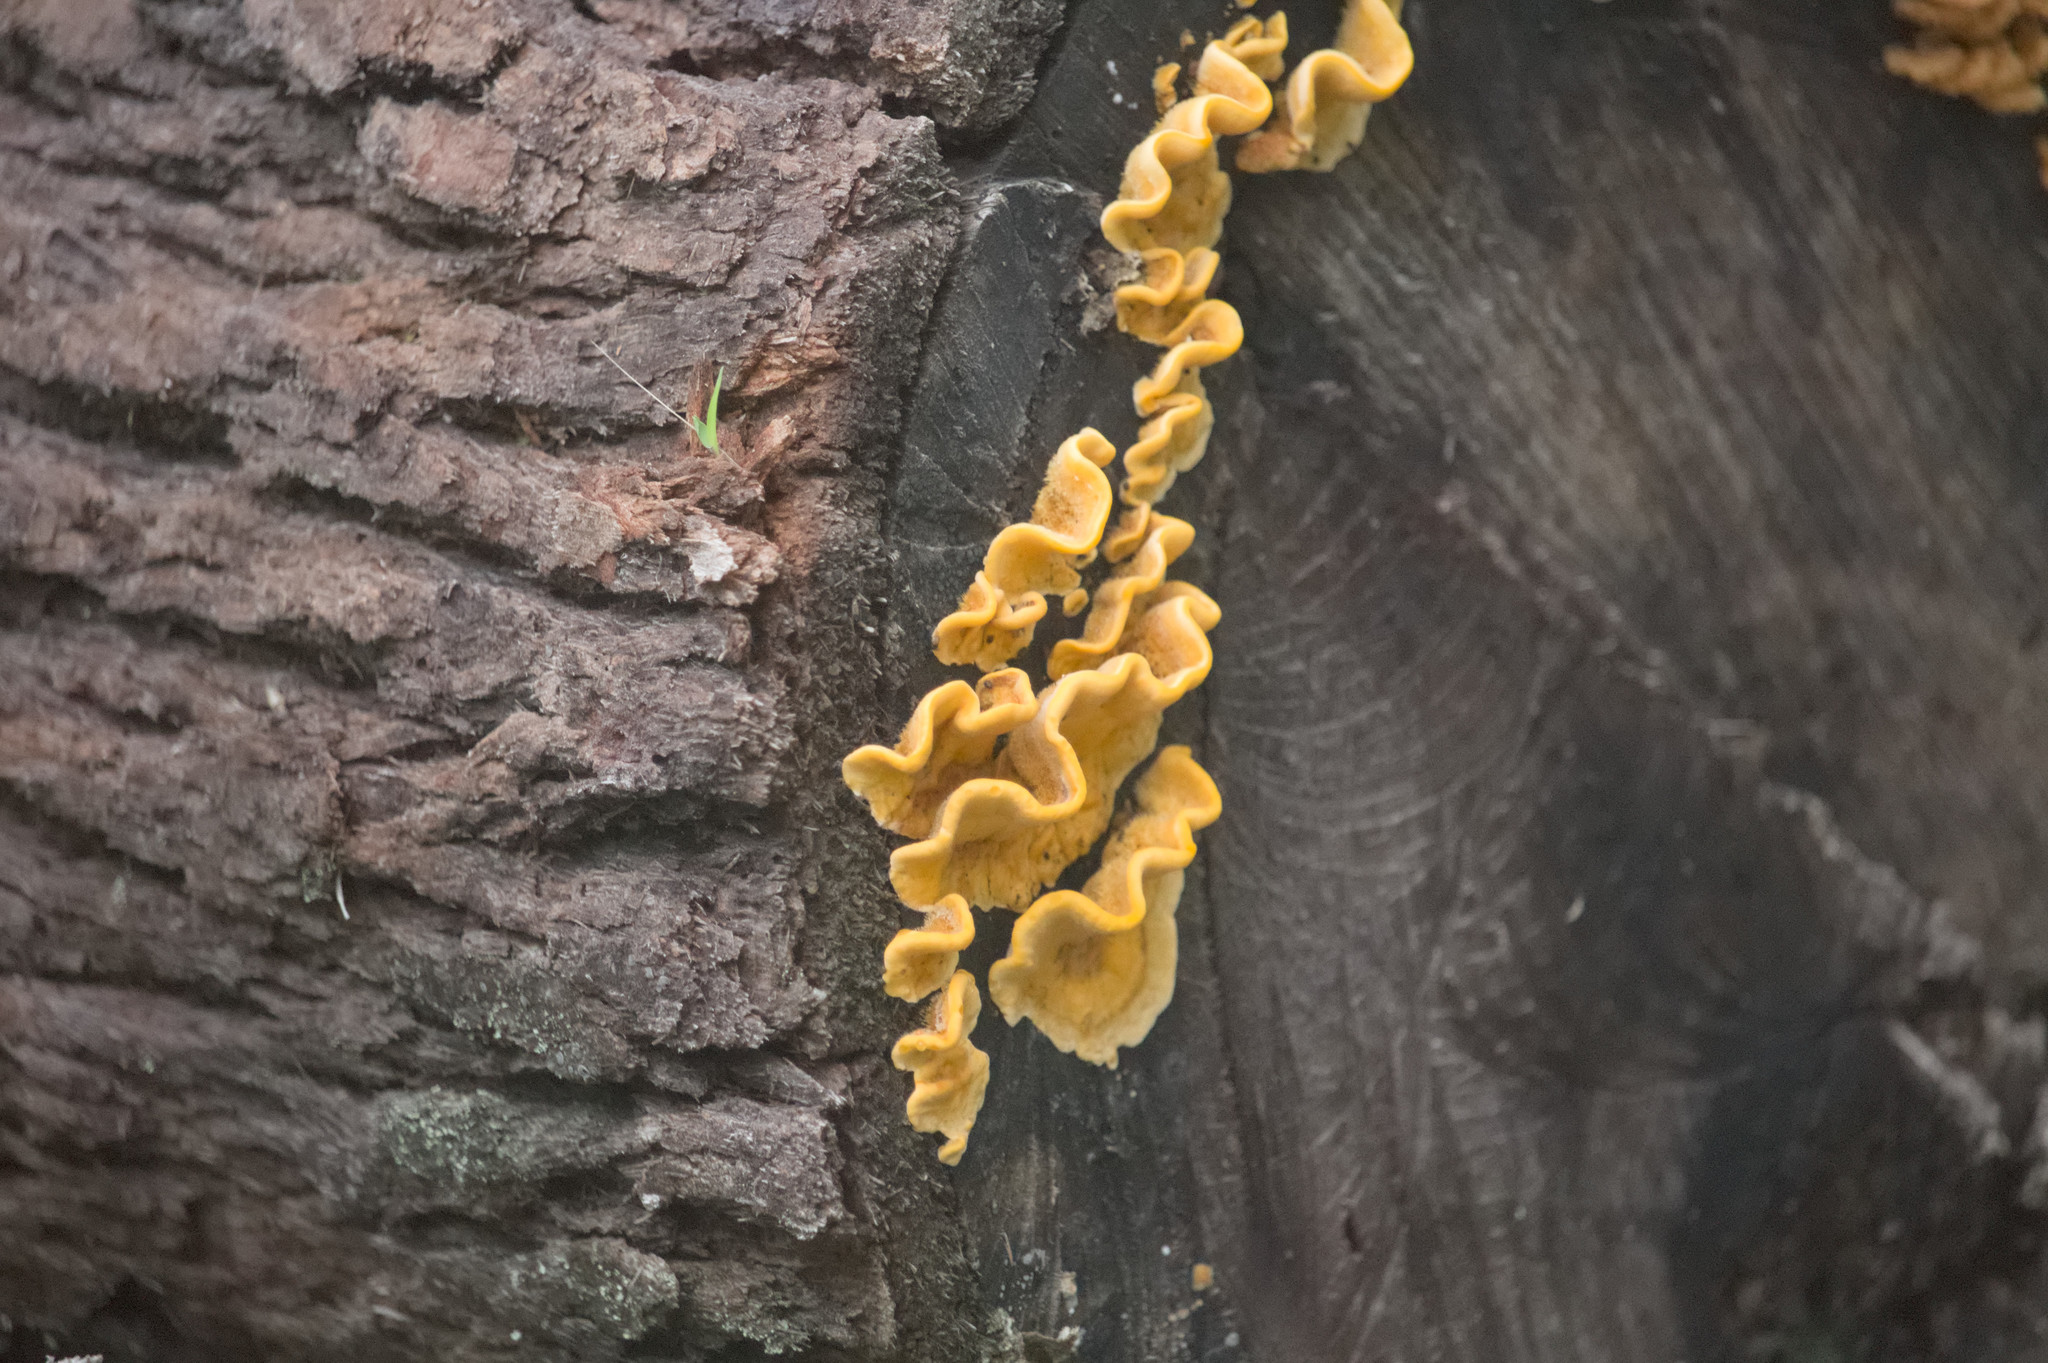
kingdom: Fungi
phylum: Basidiomycota
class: Agaricomycetes
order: Russulales
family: Stereaceae
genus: Stereum
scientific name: Stereum hirsutum
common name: Hairy curtain crust
